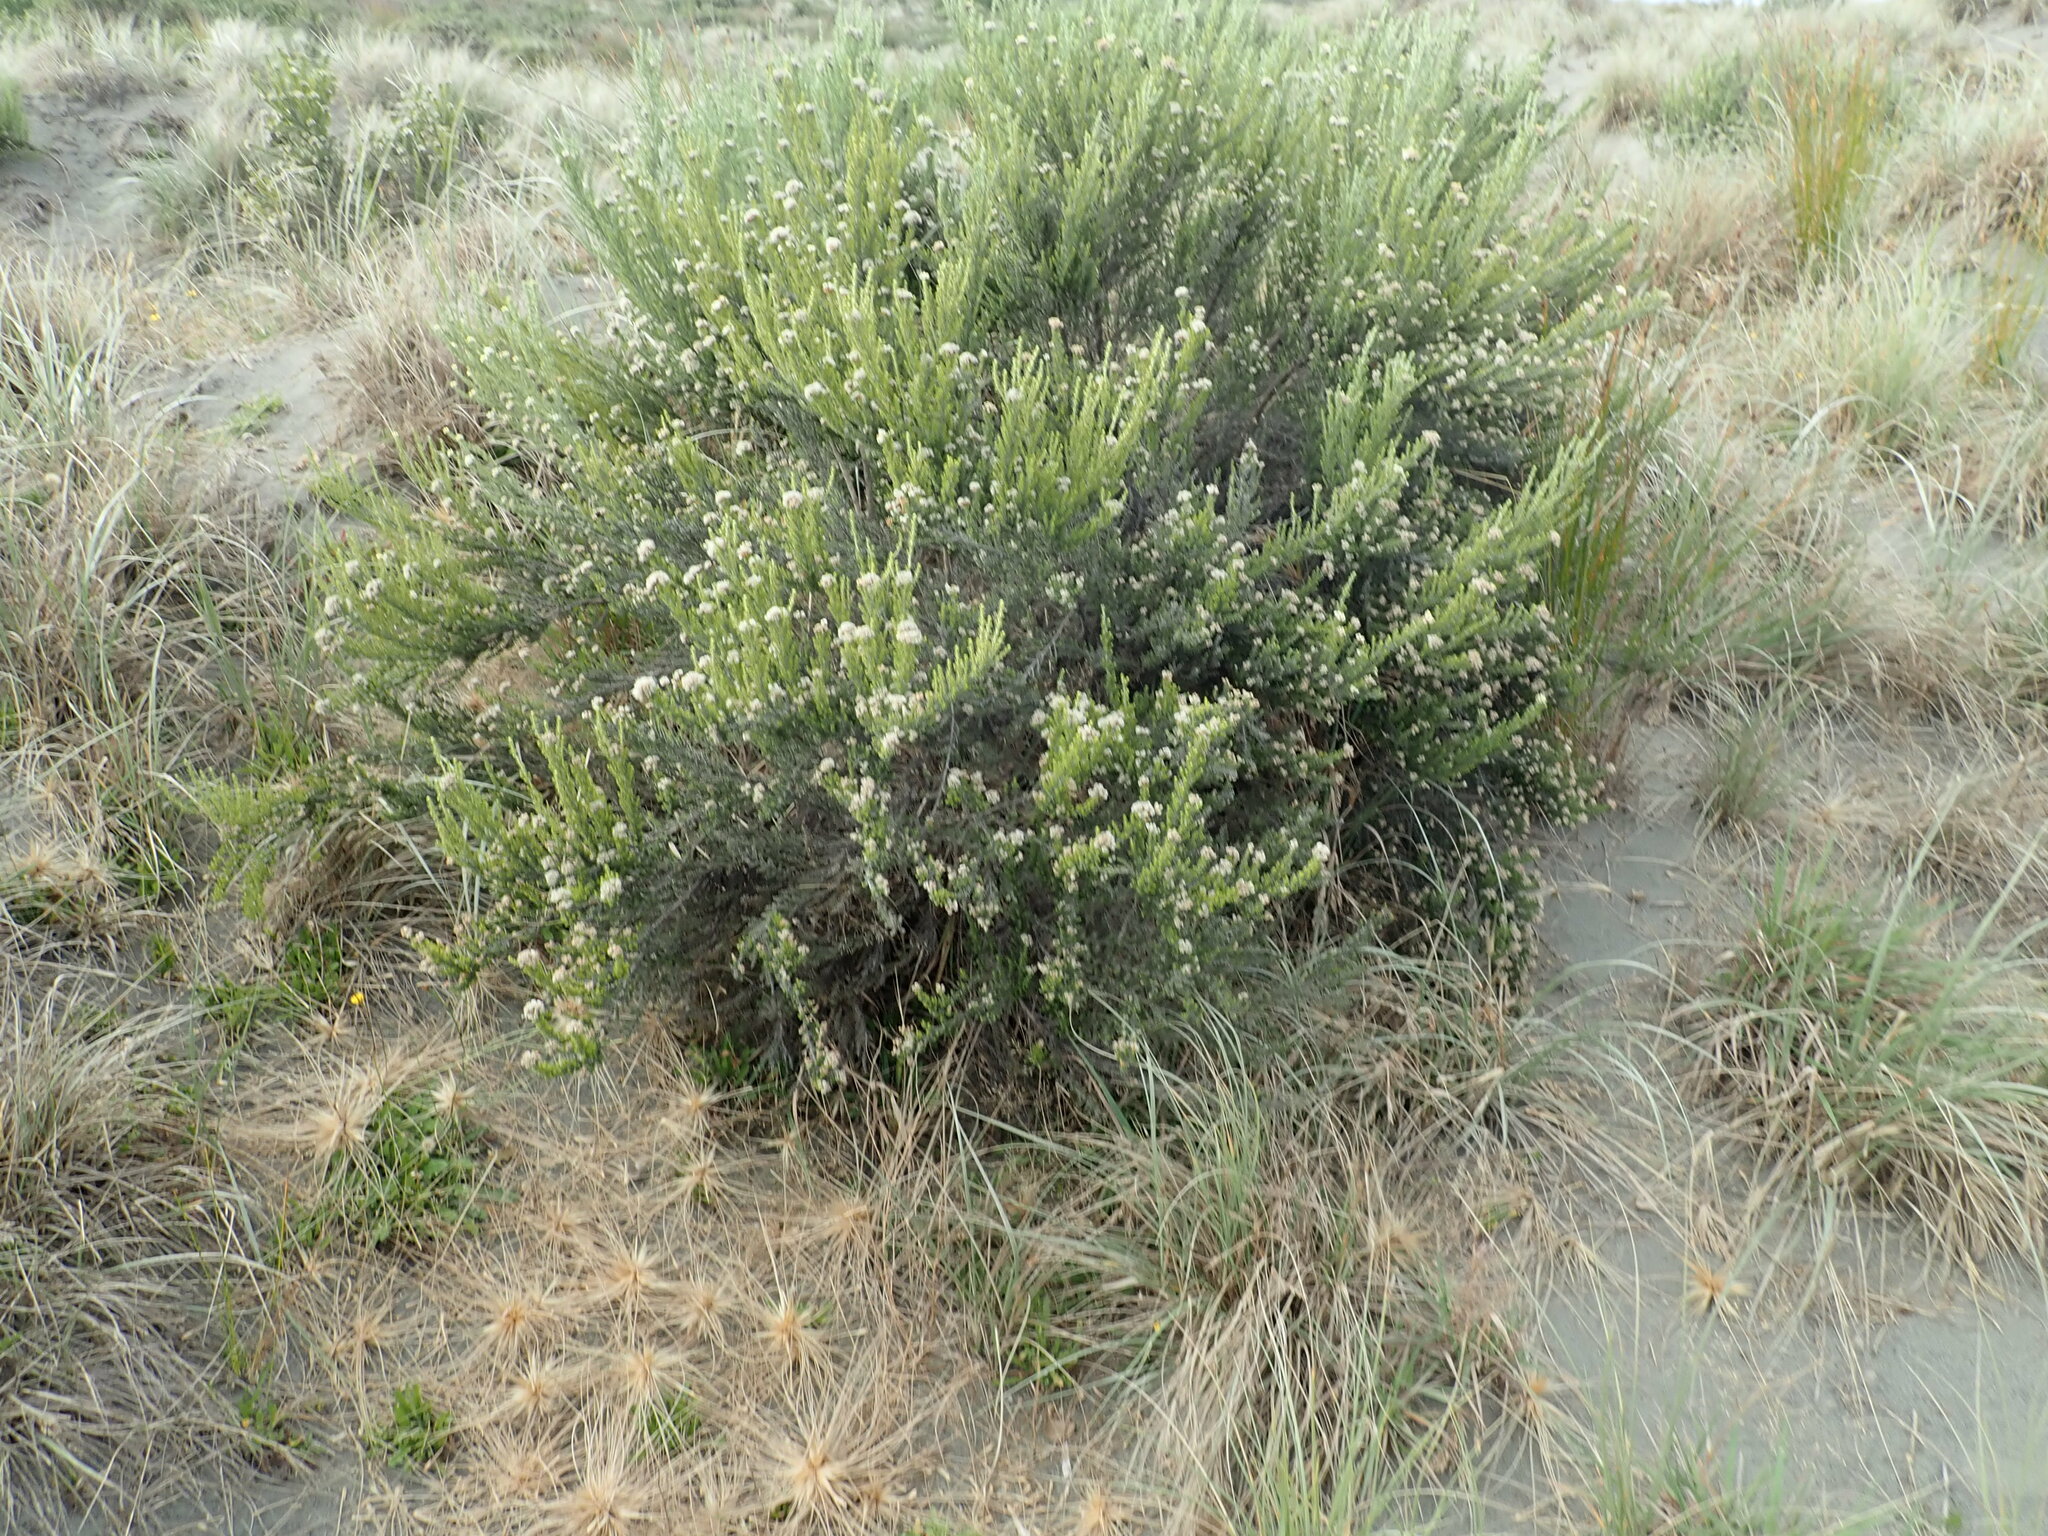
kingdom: Plantae
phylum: Tracheophyta
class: Magnoliopsida
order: Asterales
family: Asteraceae
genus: Ozothamnus
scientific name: Ozothamnus leptophyllus
